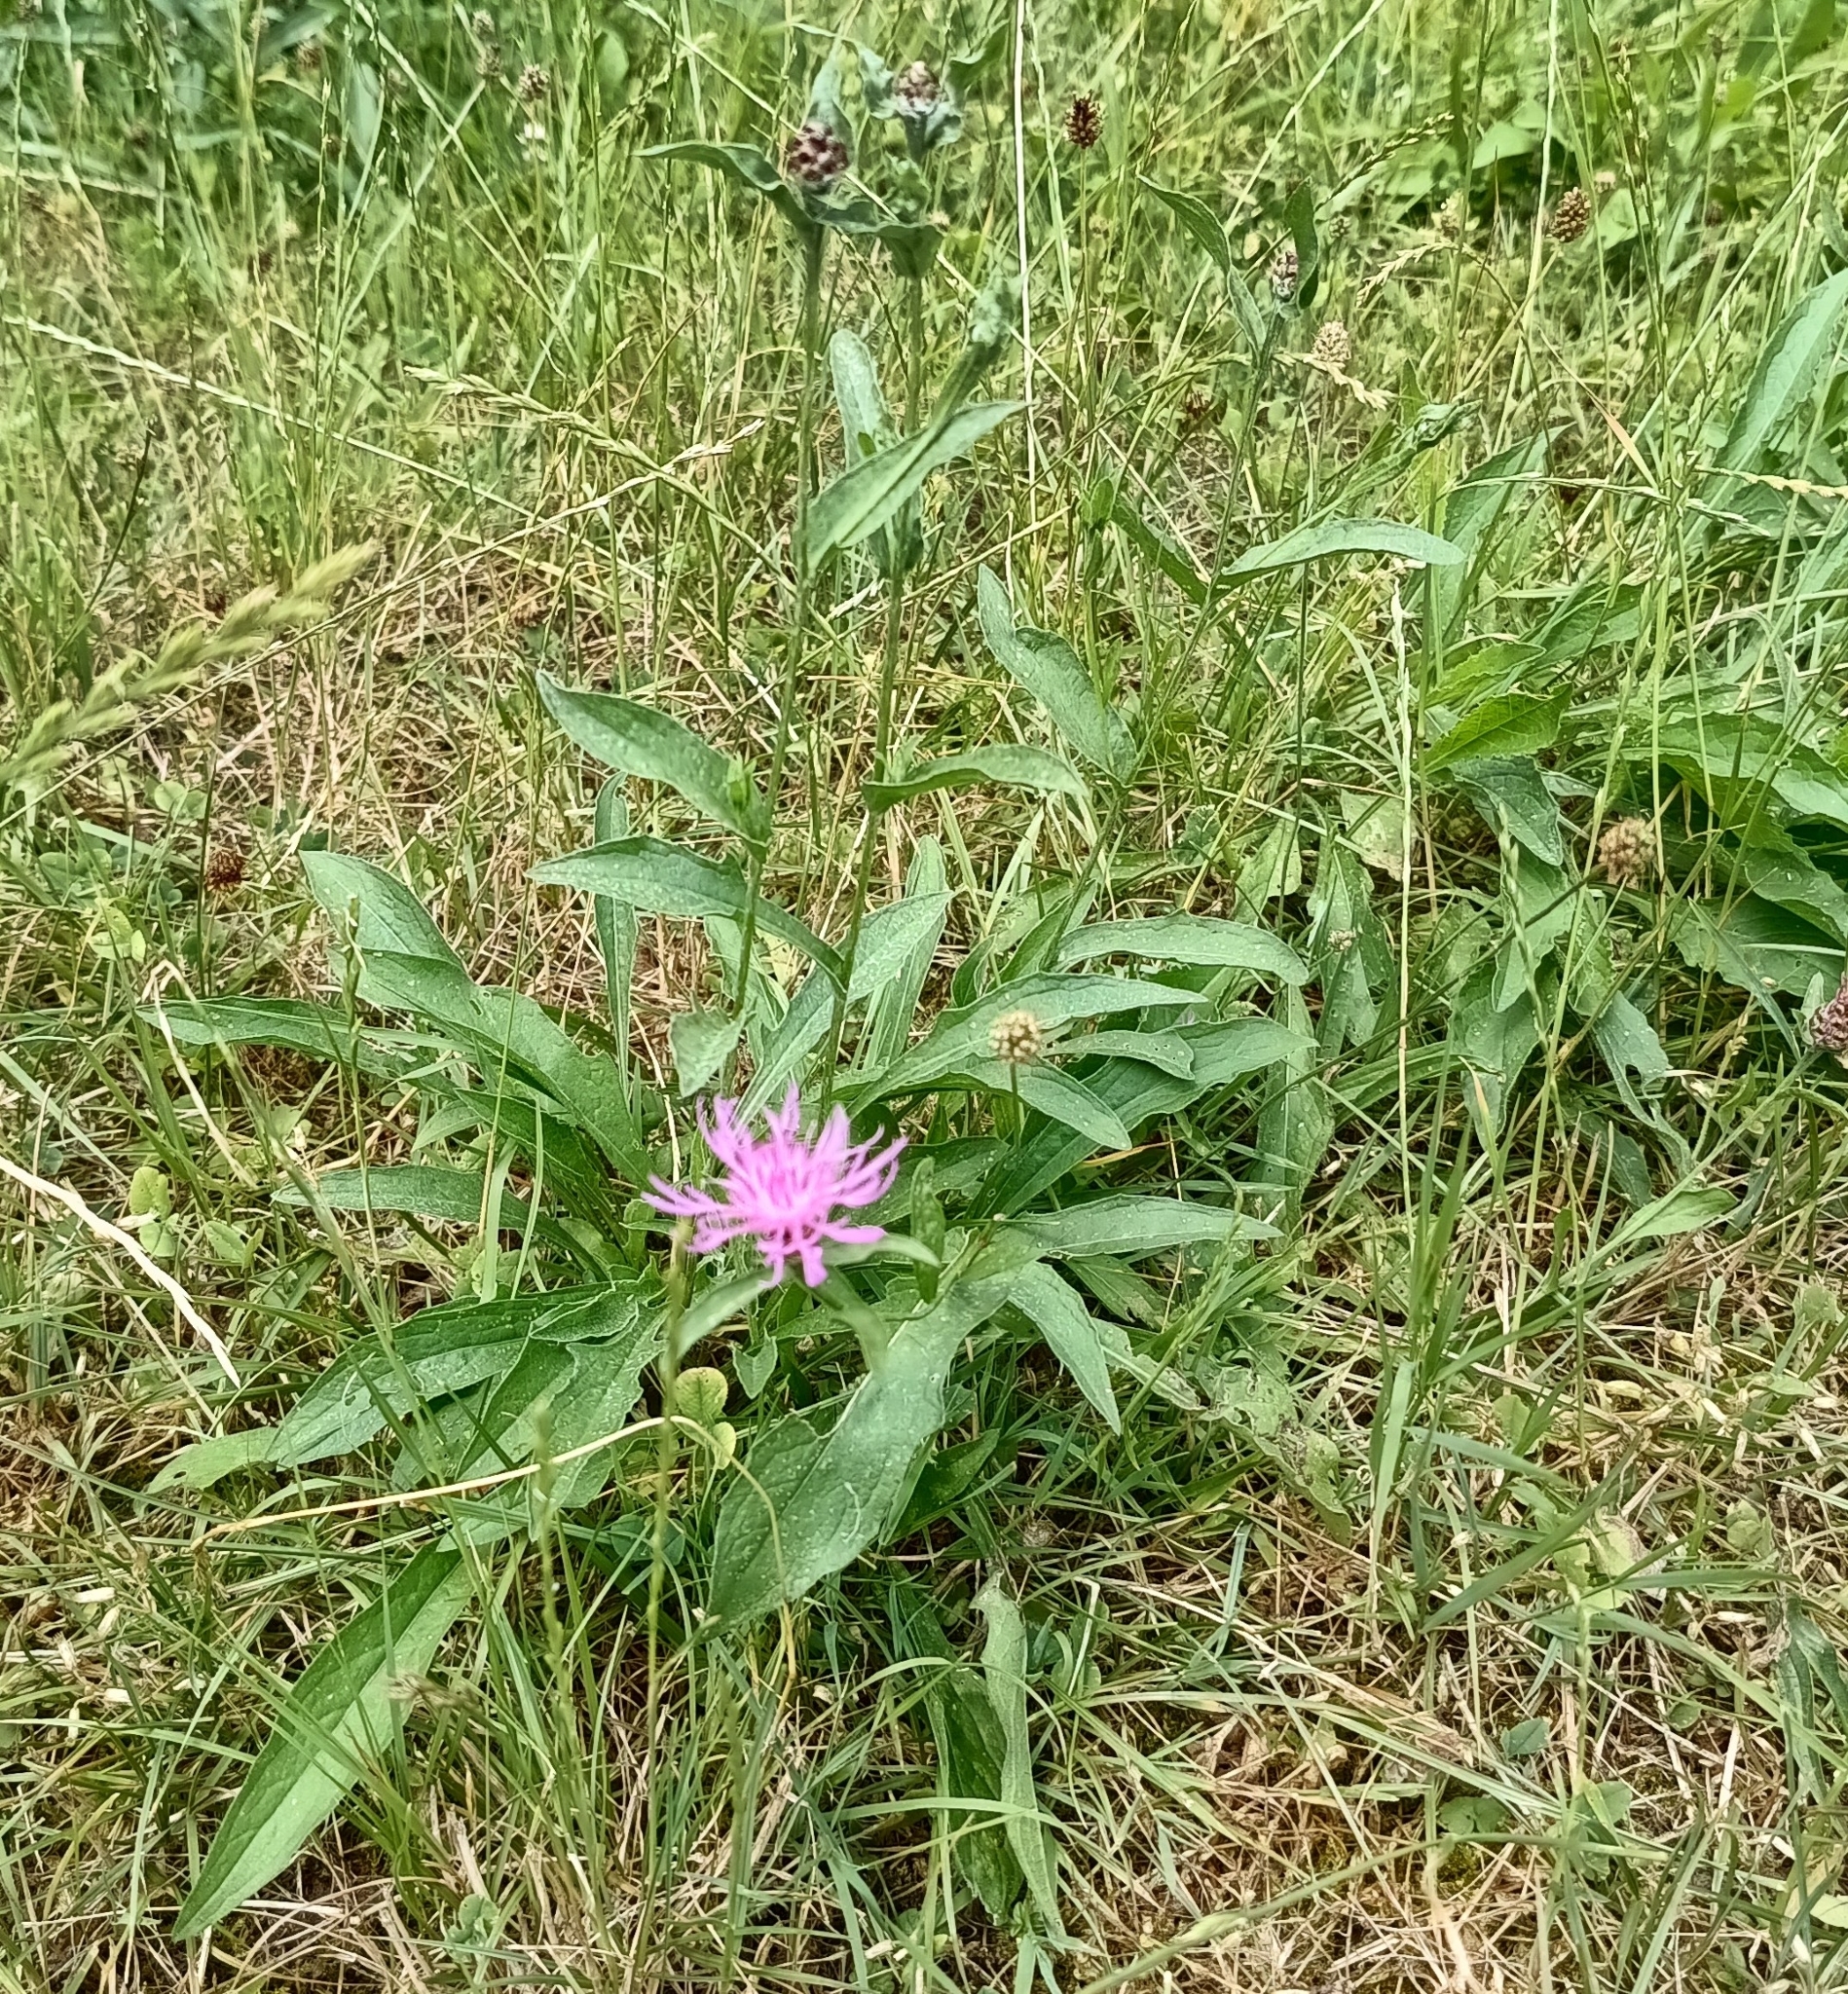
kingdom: Plantae
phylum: Tracheophyta
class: Magnoliopsida
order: Asterales
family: Asteraceae
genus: Centaurea
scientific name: Centaurea jacea
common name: Brown knapweed
